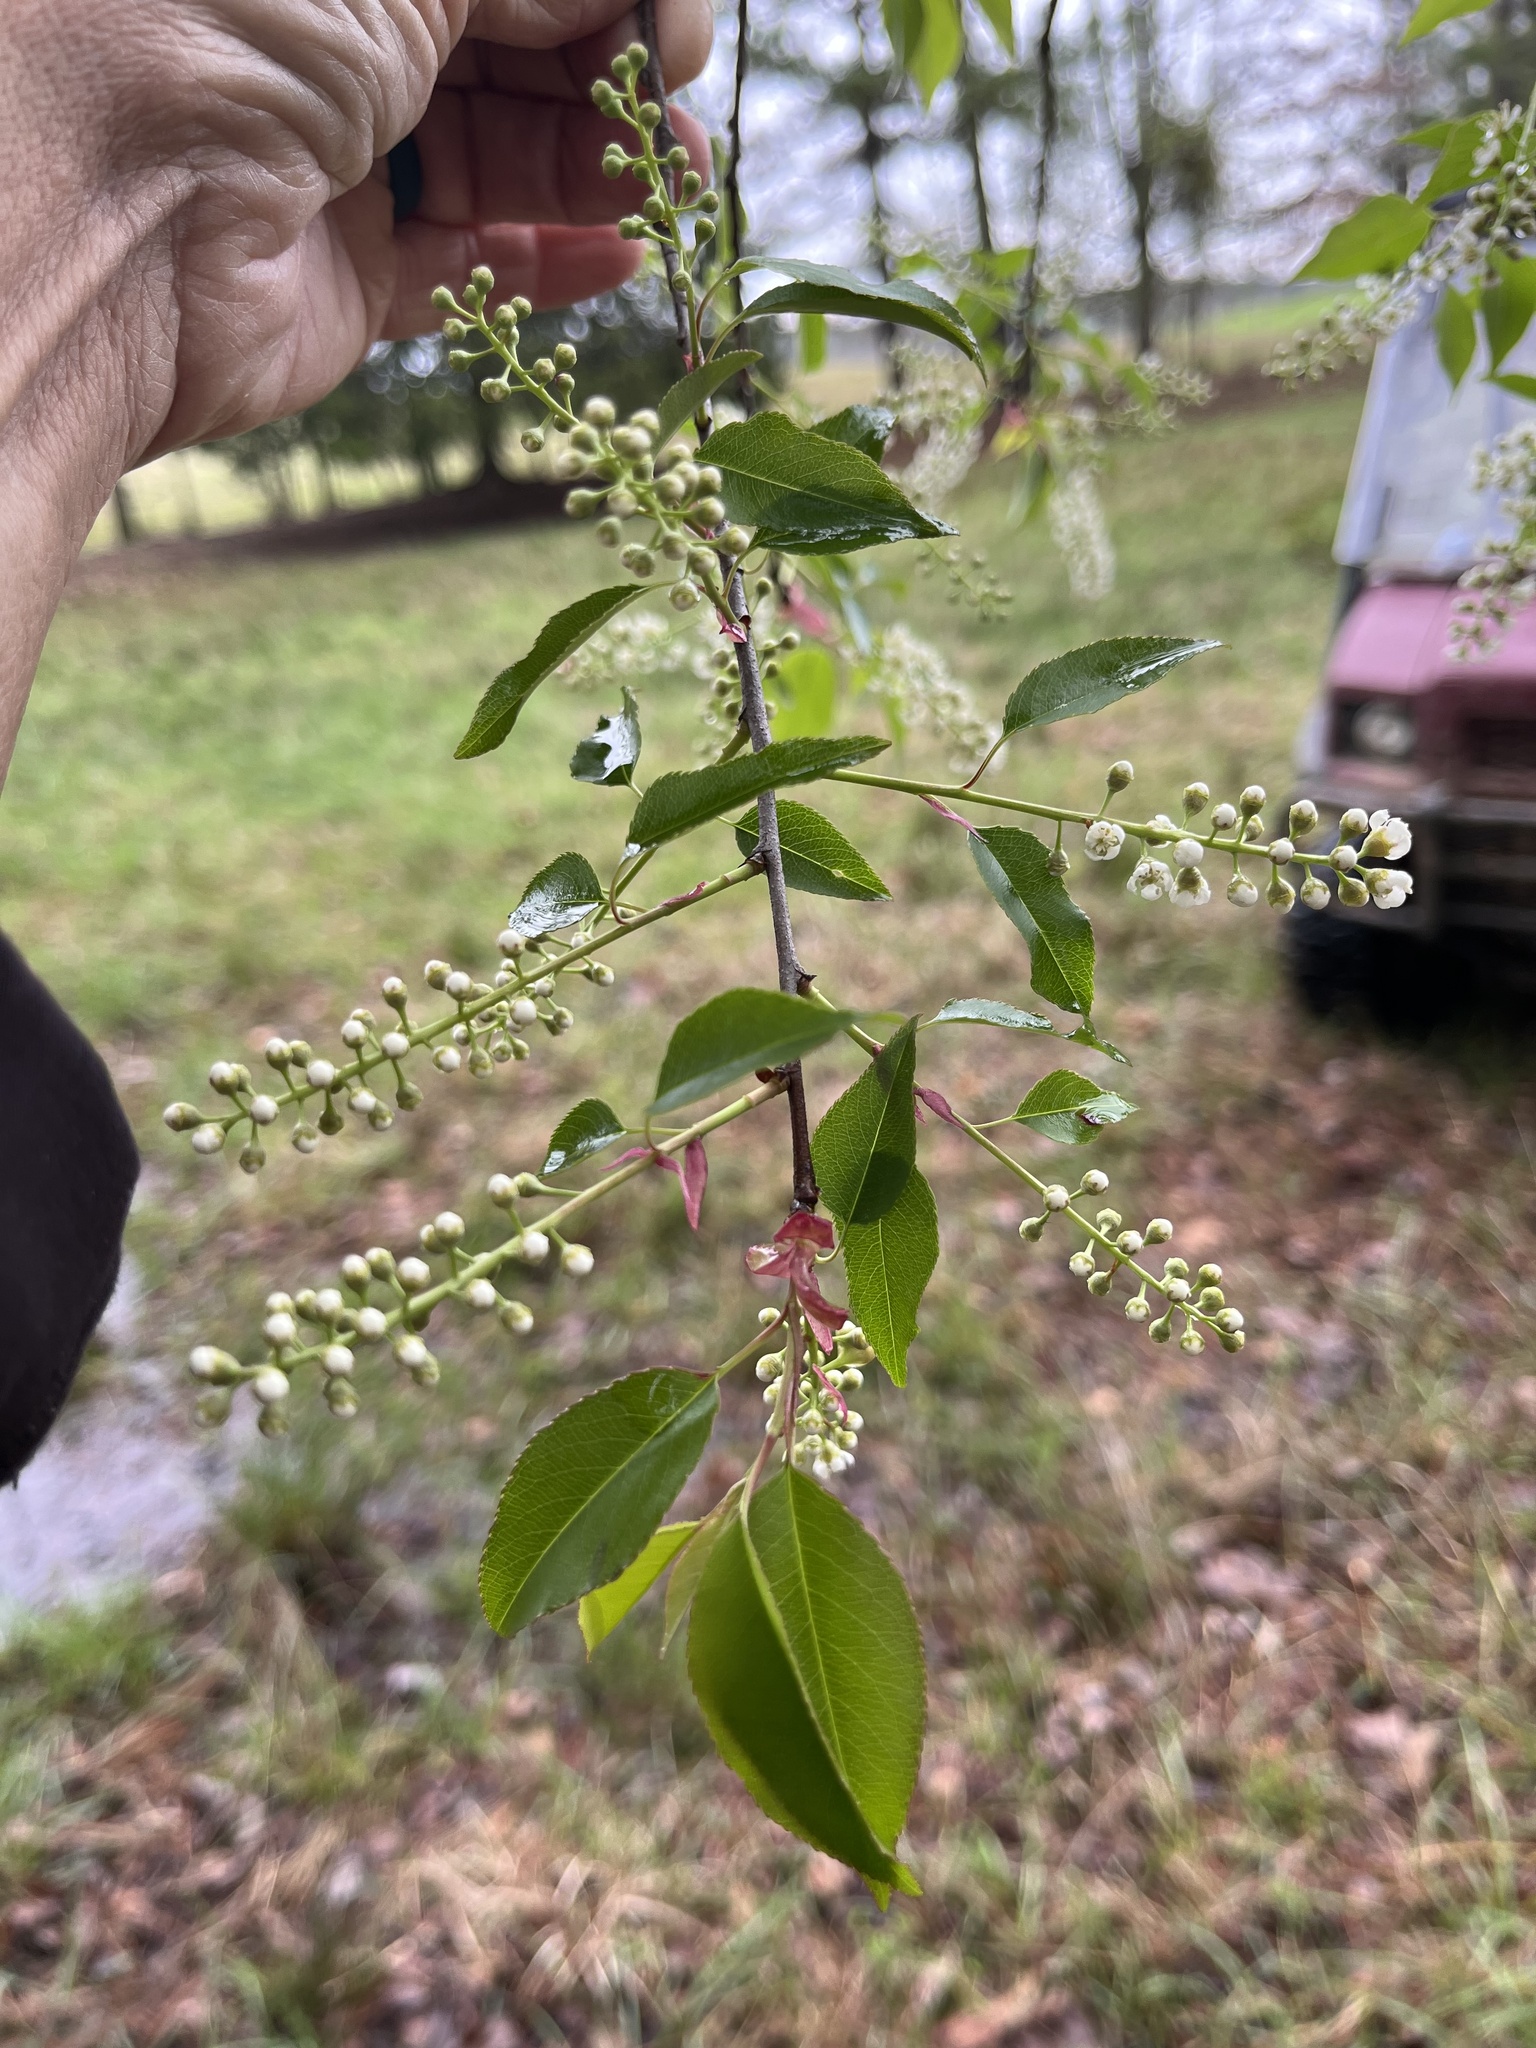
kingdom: Plantae
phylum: Tracheophyta
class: Magnoliopsida
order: Rosales
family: Rosaceae
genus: Prunus
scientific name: Prunus serotina
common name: Black cherry
